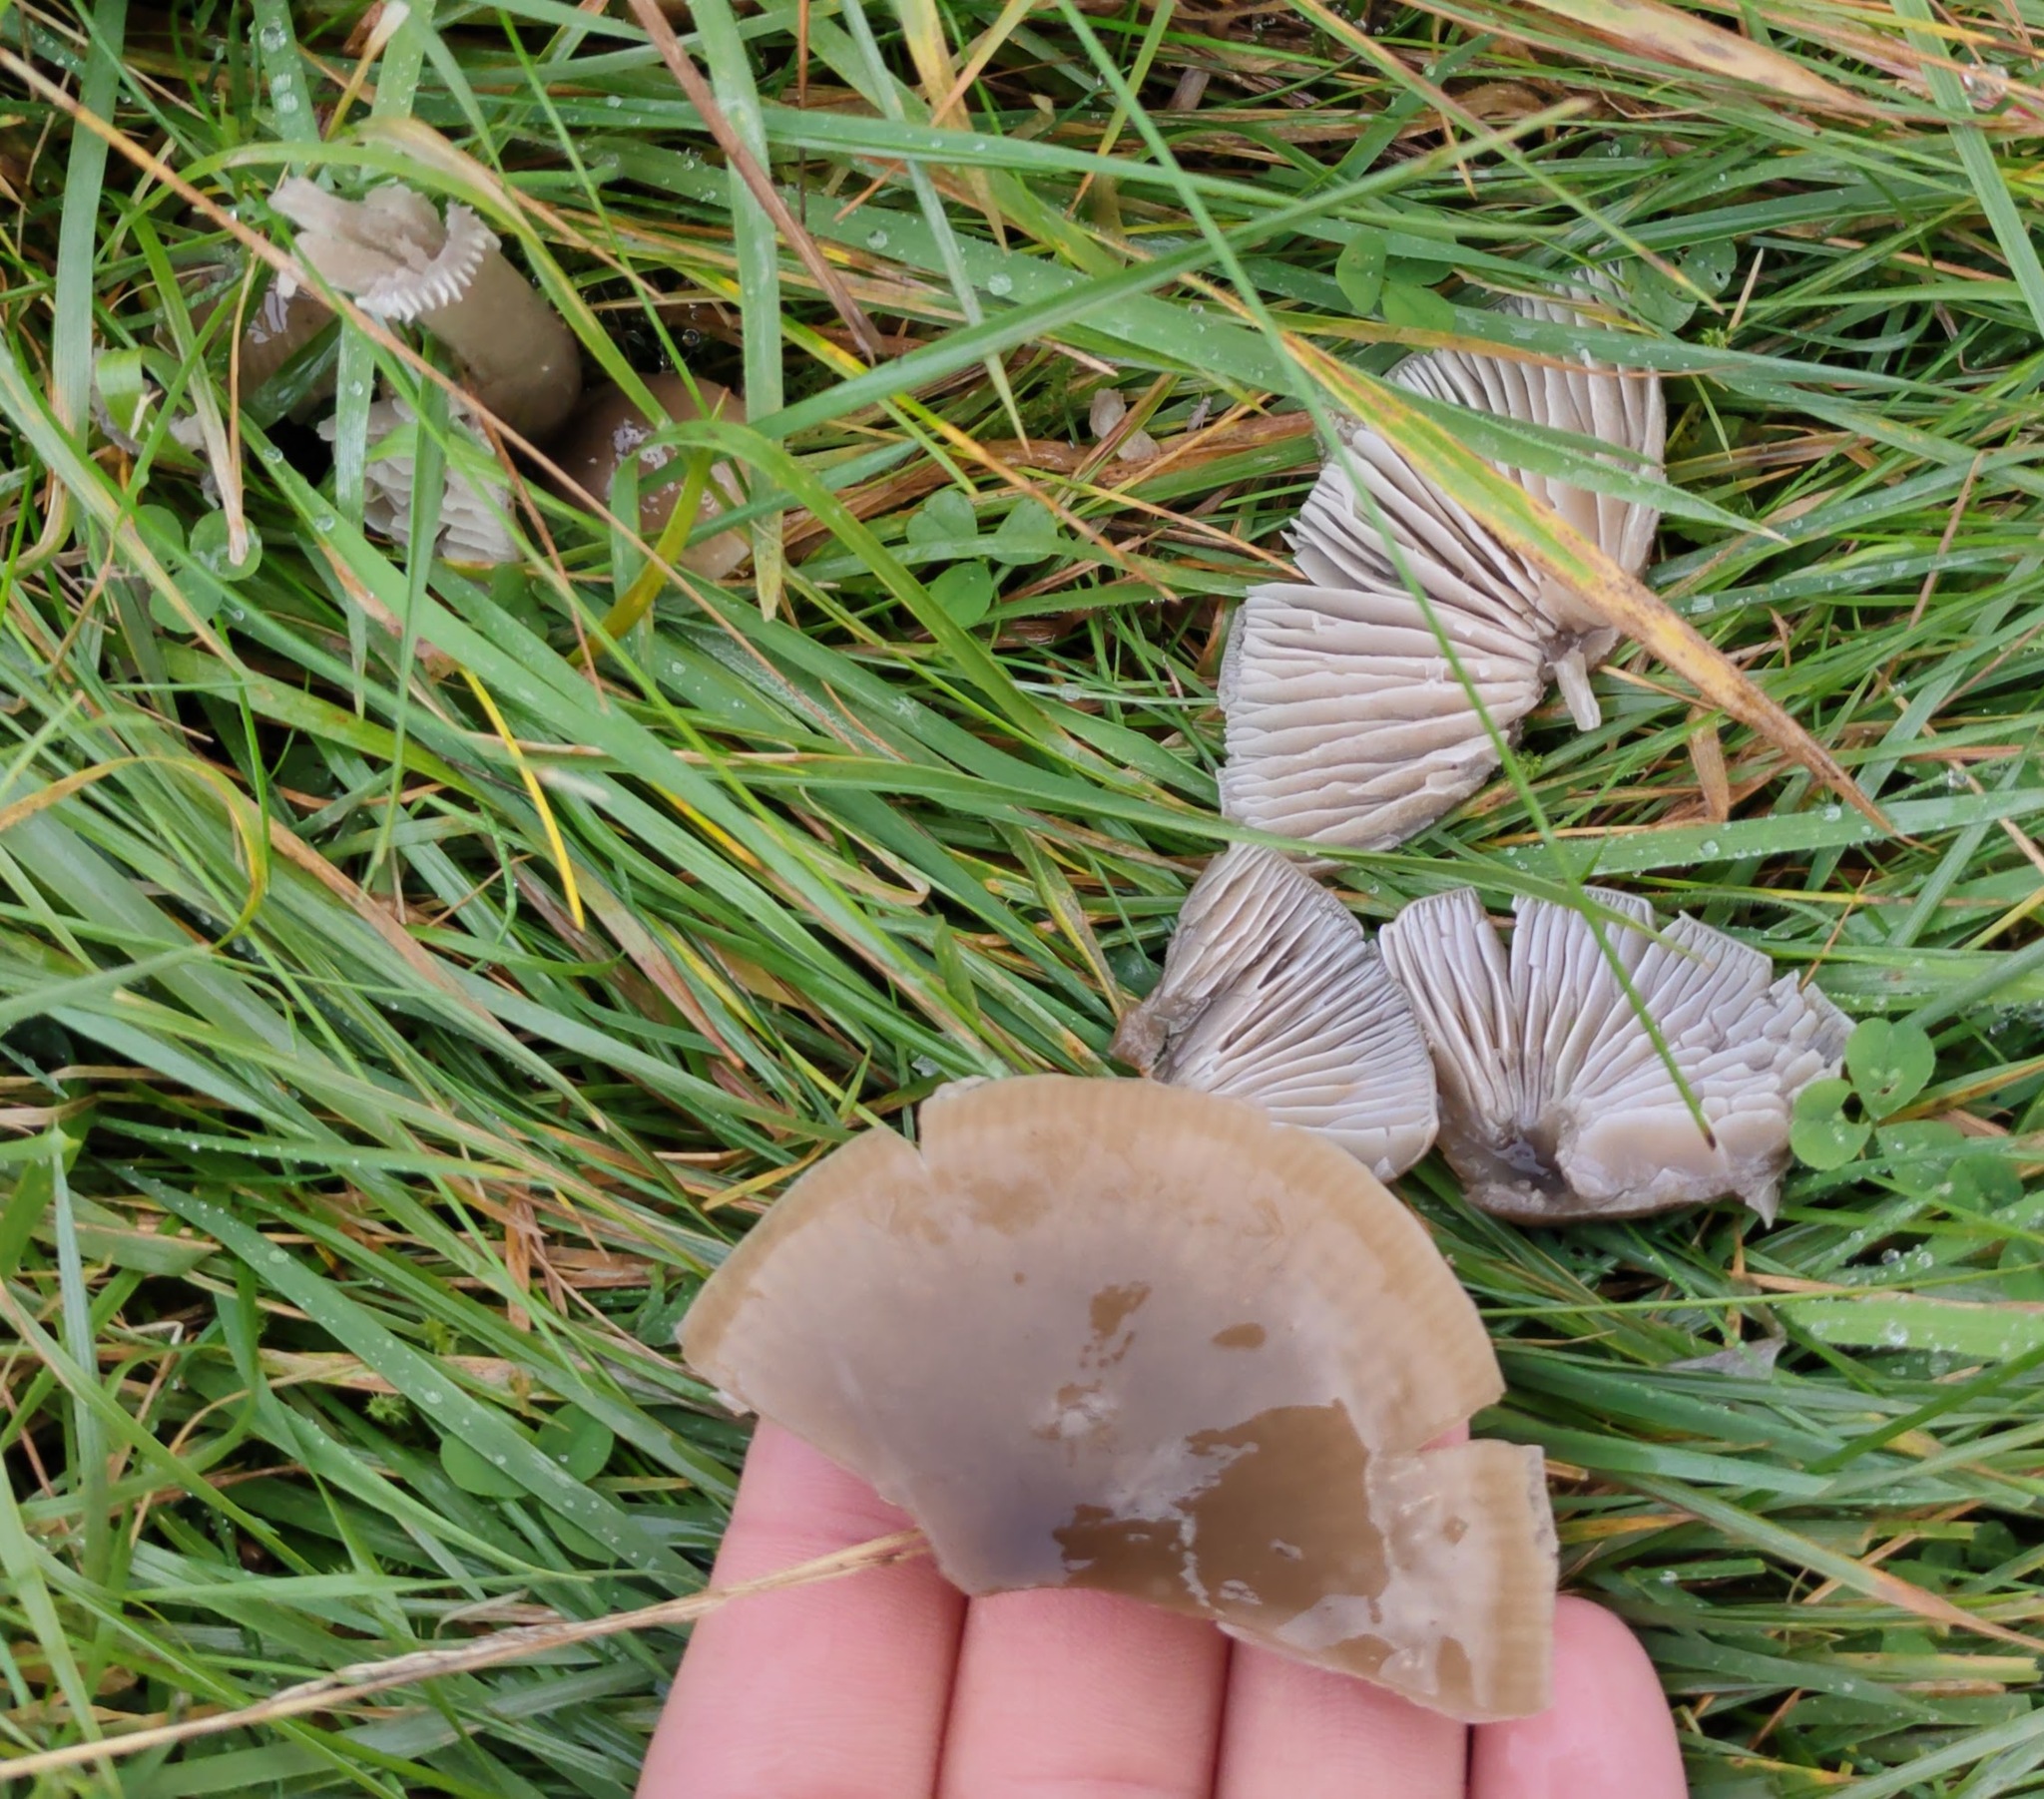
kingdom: Fungi
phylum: Basidiomycota
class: Agaricomycetes
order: Agaricales
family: Hygrophoraceae
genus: Gliophorus
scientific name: Gliophorus irrigatus
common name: Slimy waxcap
